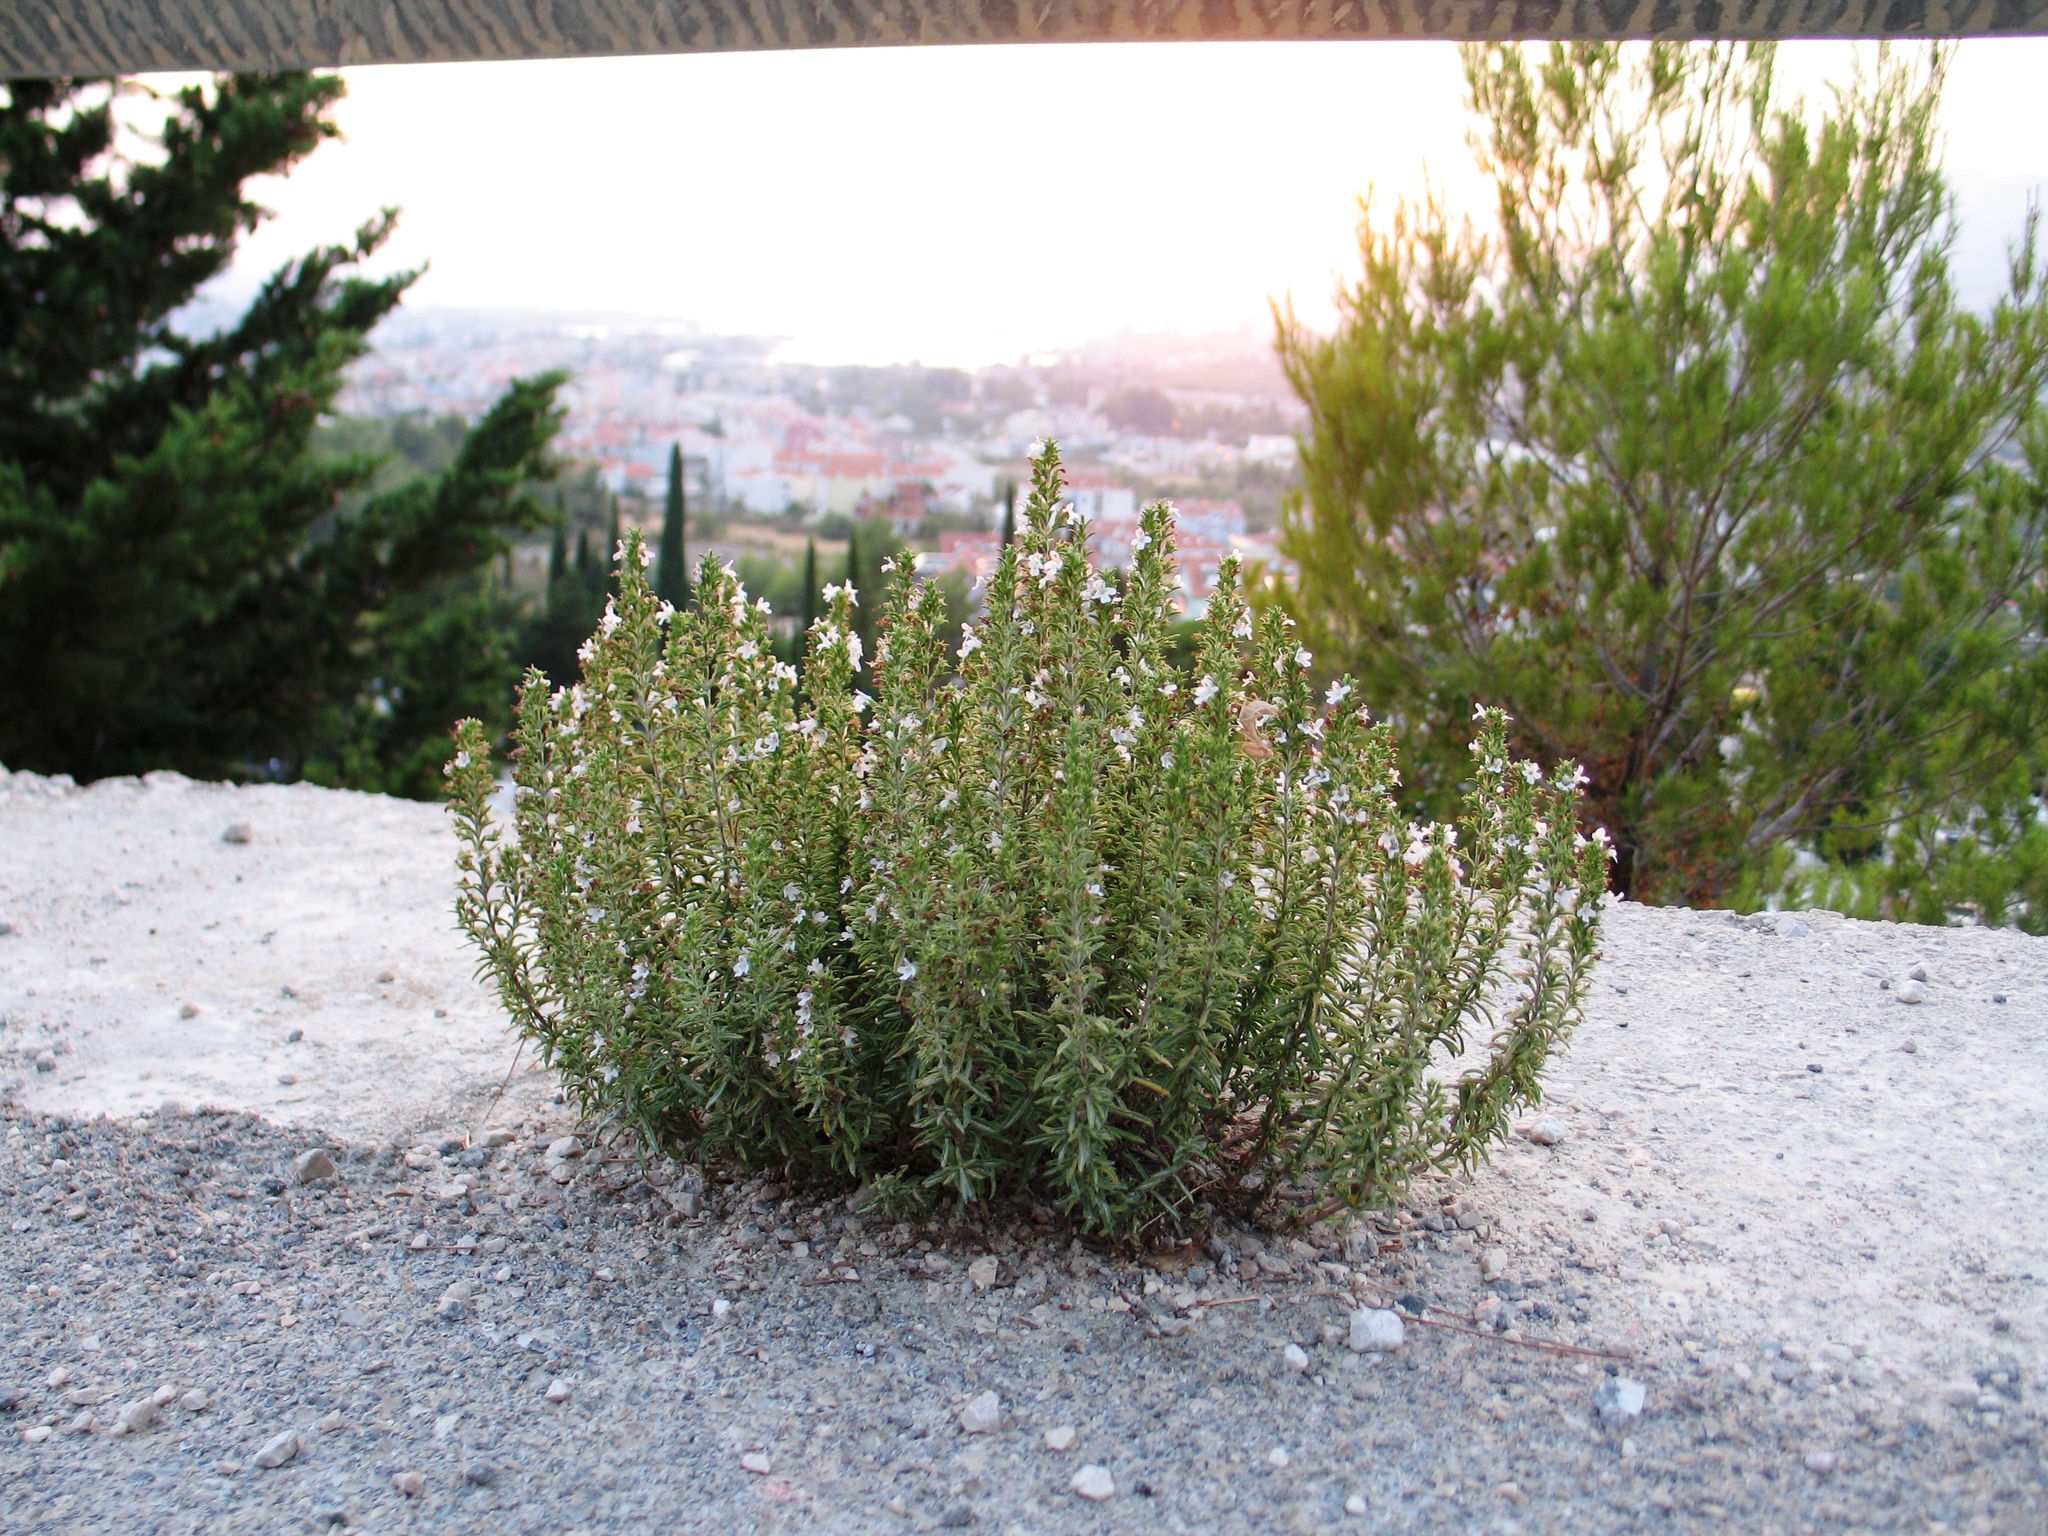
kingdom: Plantae
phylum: Tracheophyta
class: Magnoliopsida
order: Lamiales
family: Lamiaceae
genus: Satureja
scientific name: Satureja montana
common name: Winter savory
